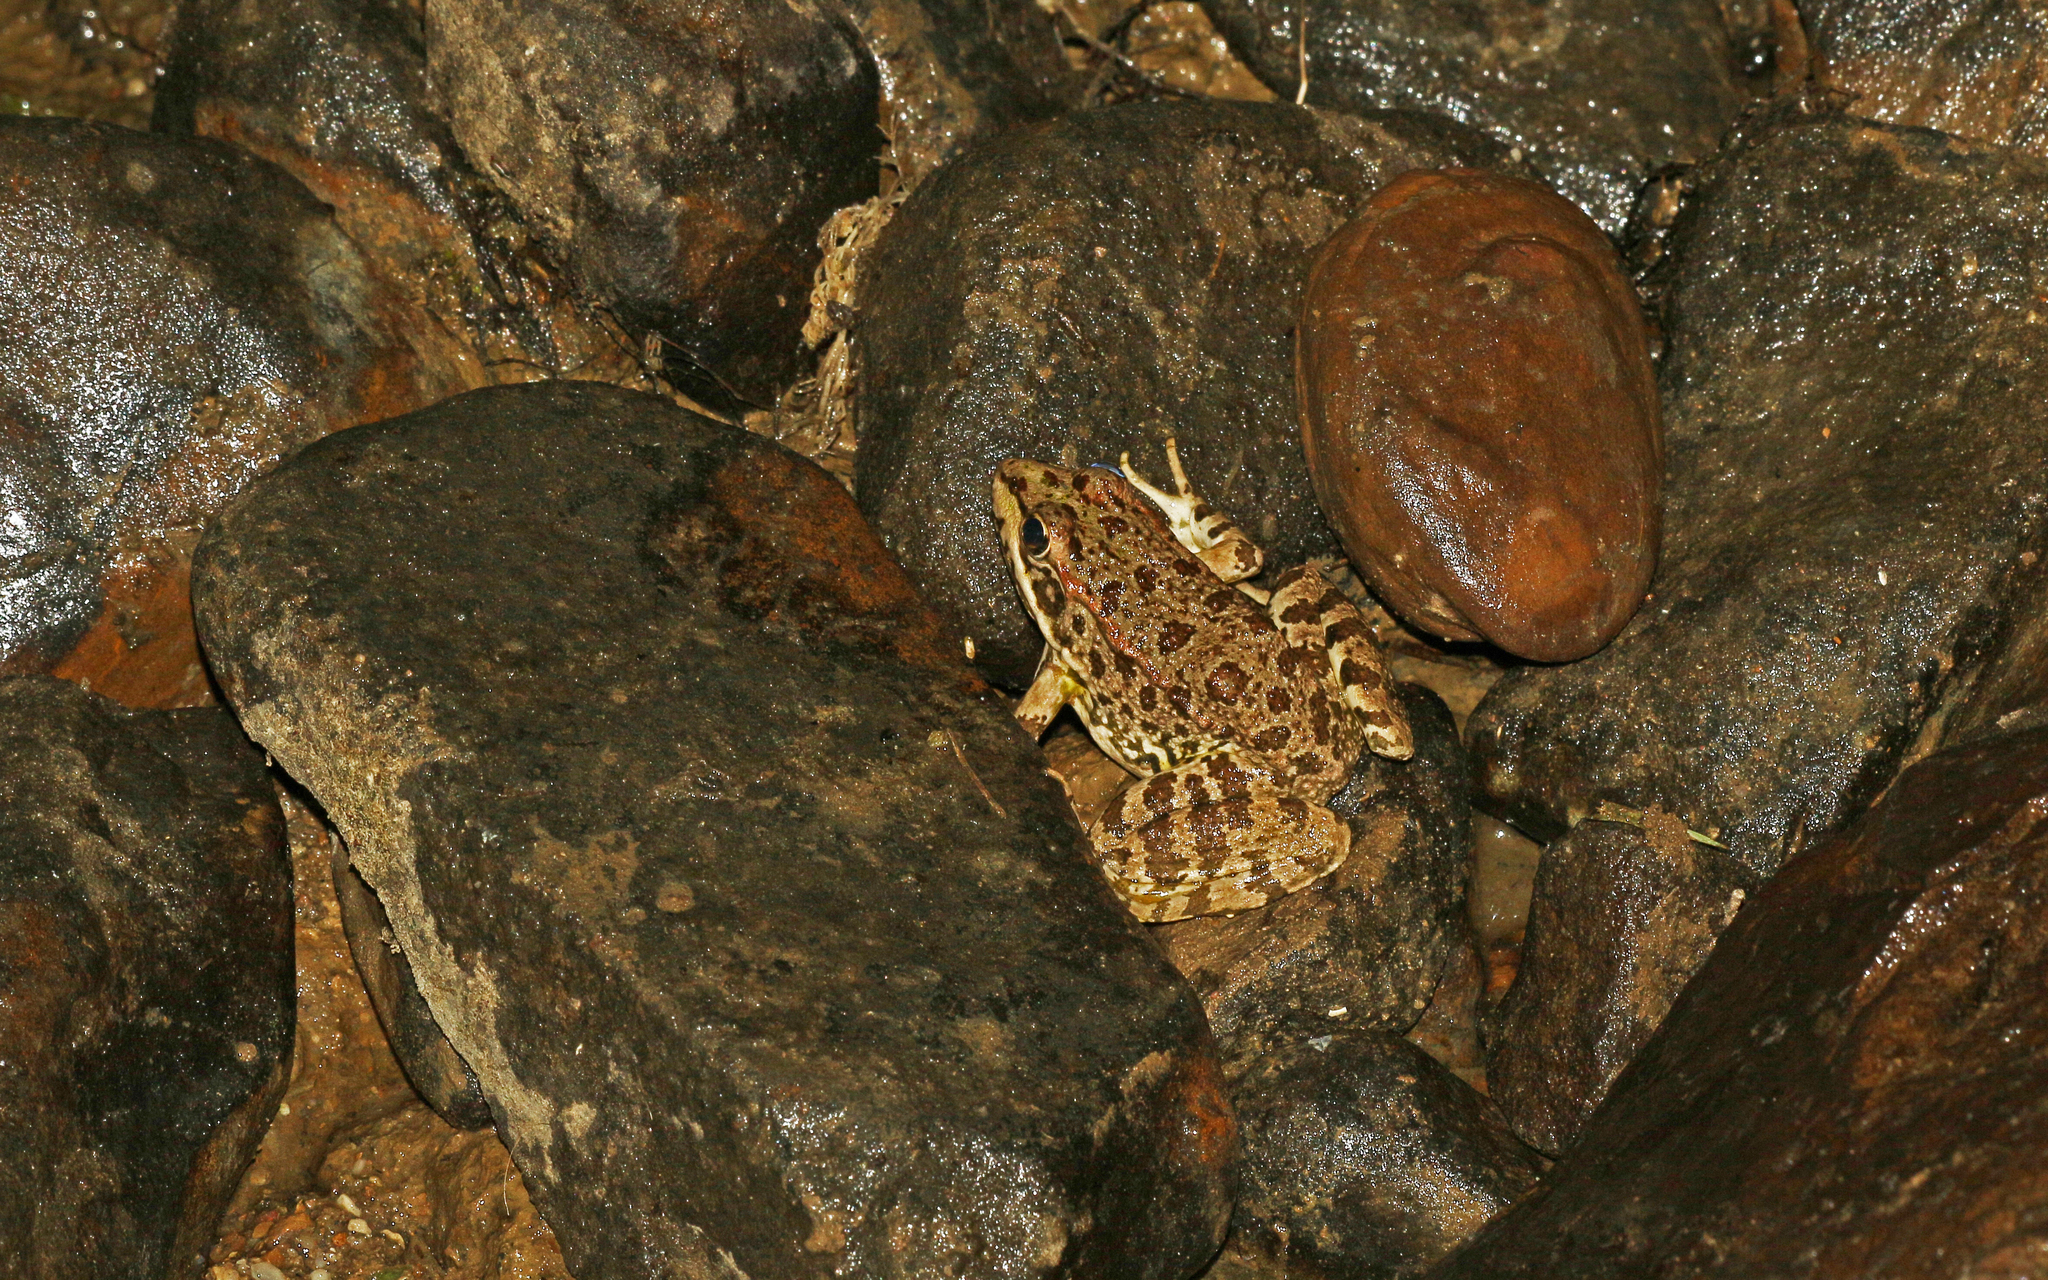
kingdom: Animalia
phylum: Chordata
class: Amphibia
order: Anura
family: Ranidae
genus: Pelophylax
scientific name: Pelophylax perezi
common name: Perez's frog
